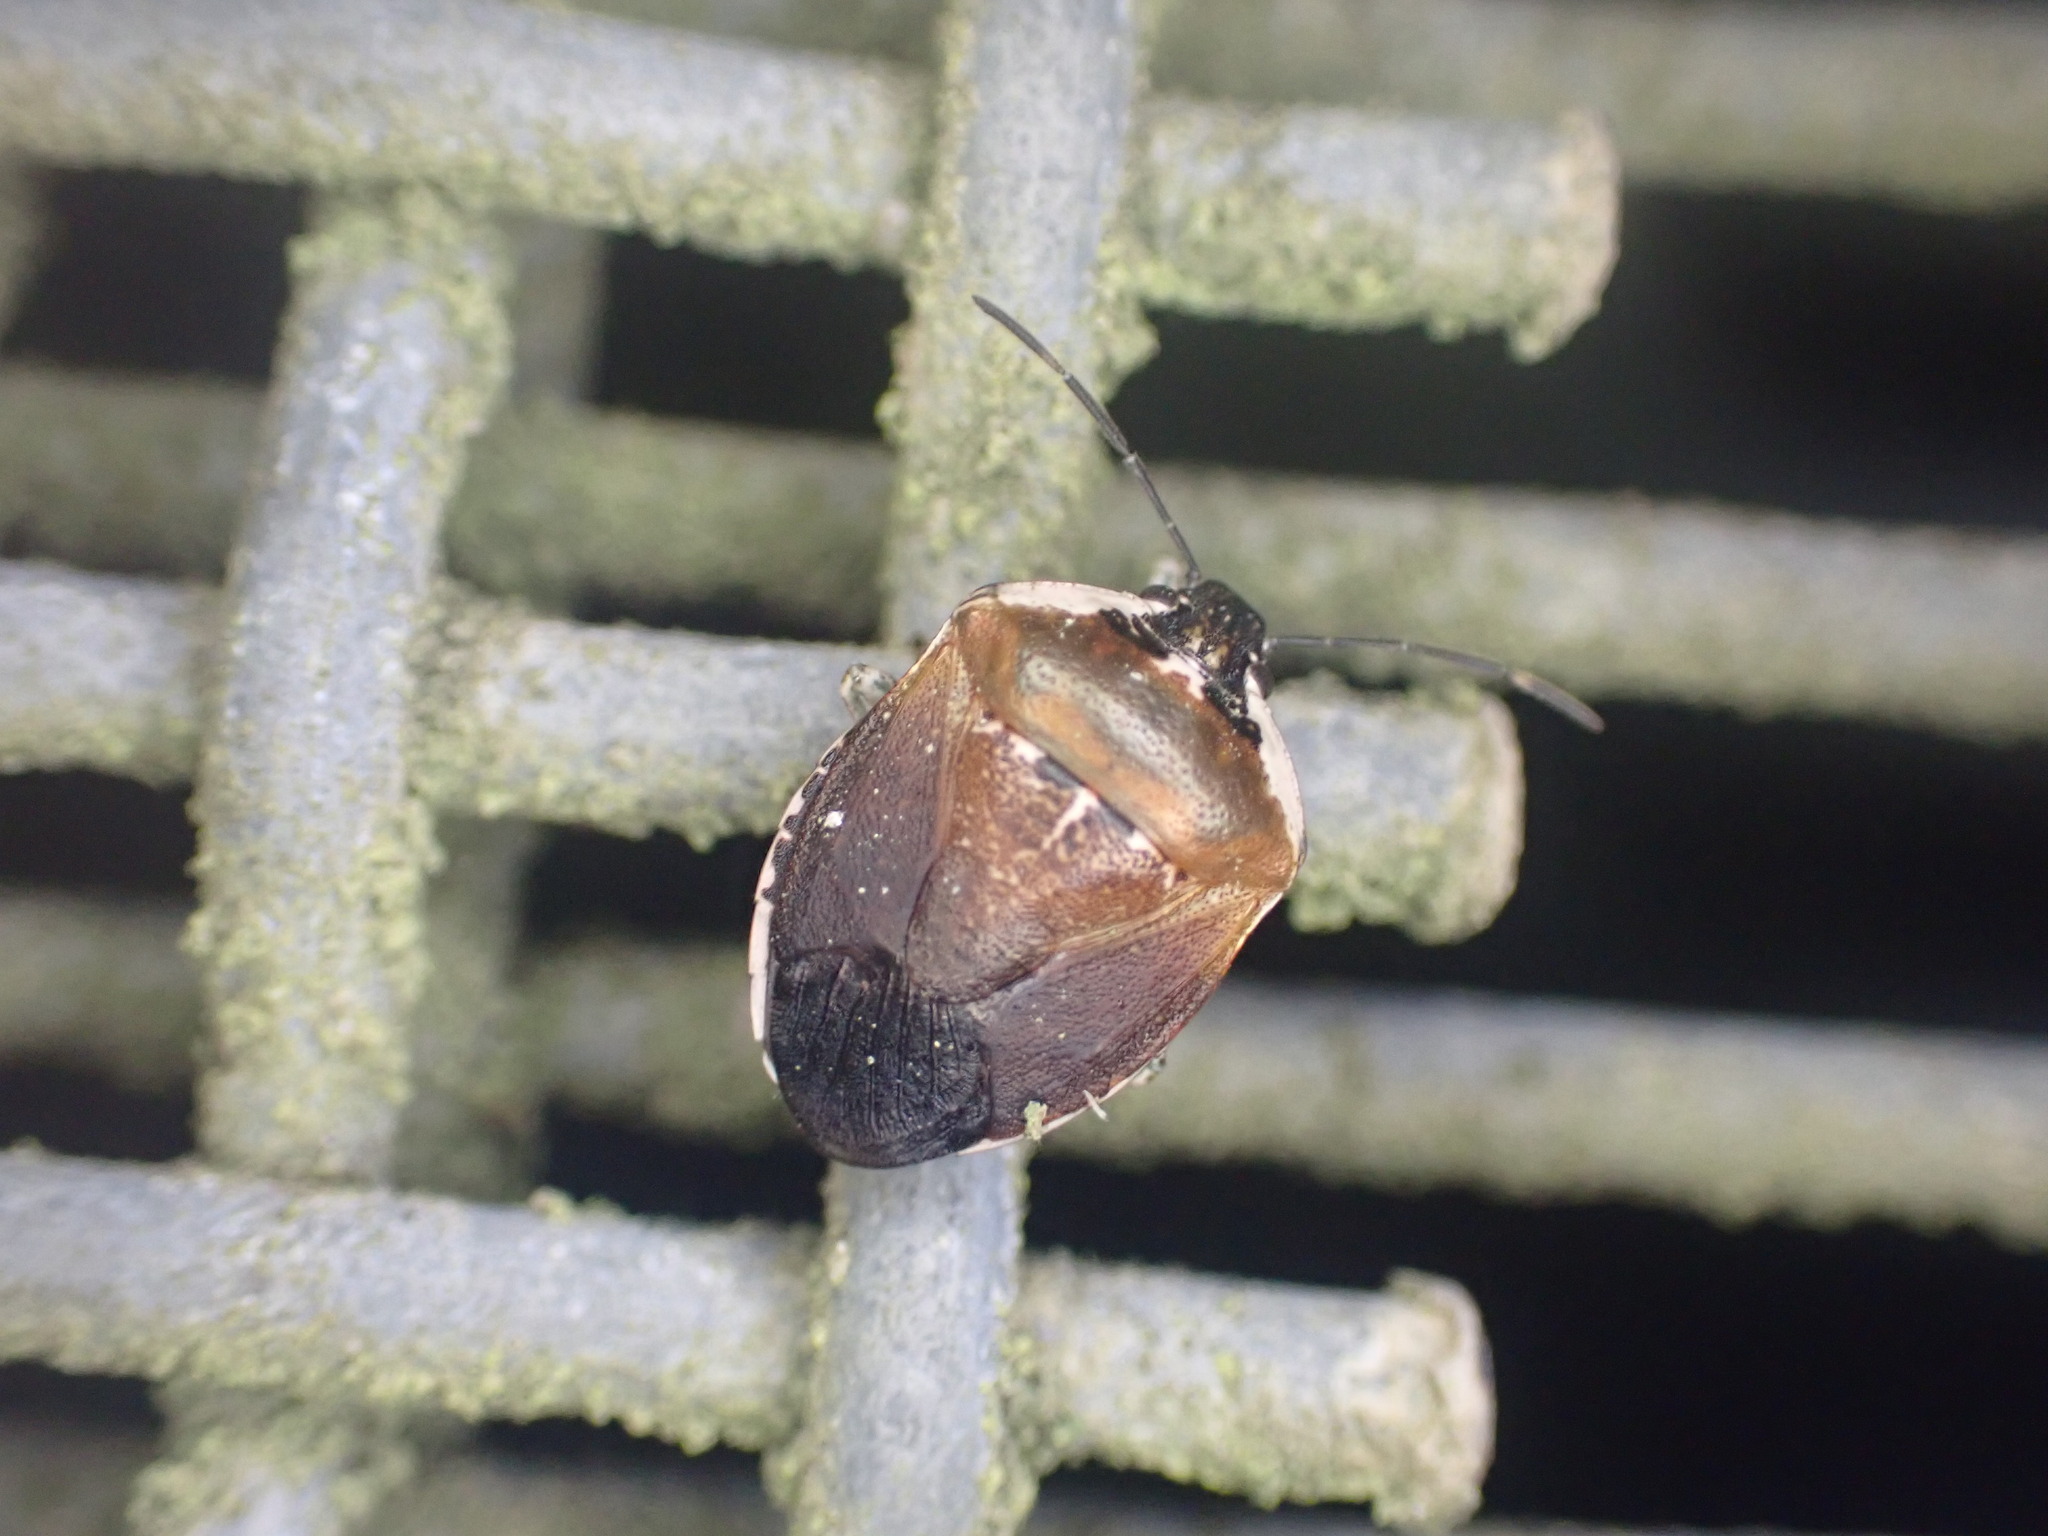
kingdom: Animalia
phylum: Arthropoda
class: Insecta
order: Hemiptera
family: Pentatomidae
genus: Monteithiella
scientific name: Monteithiella
